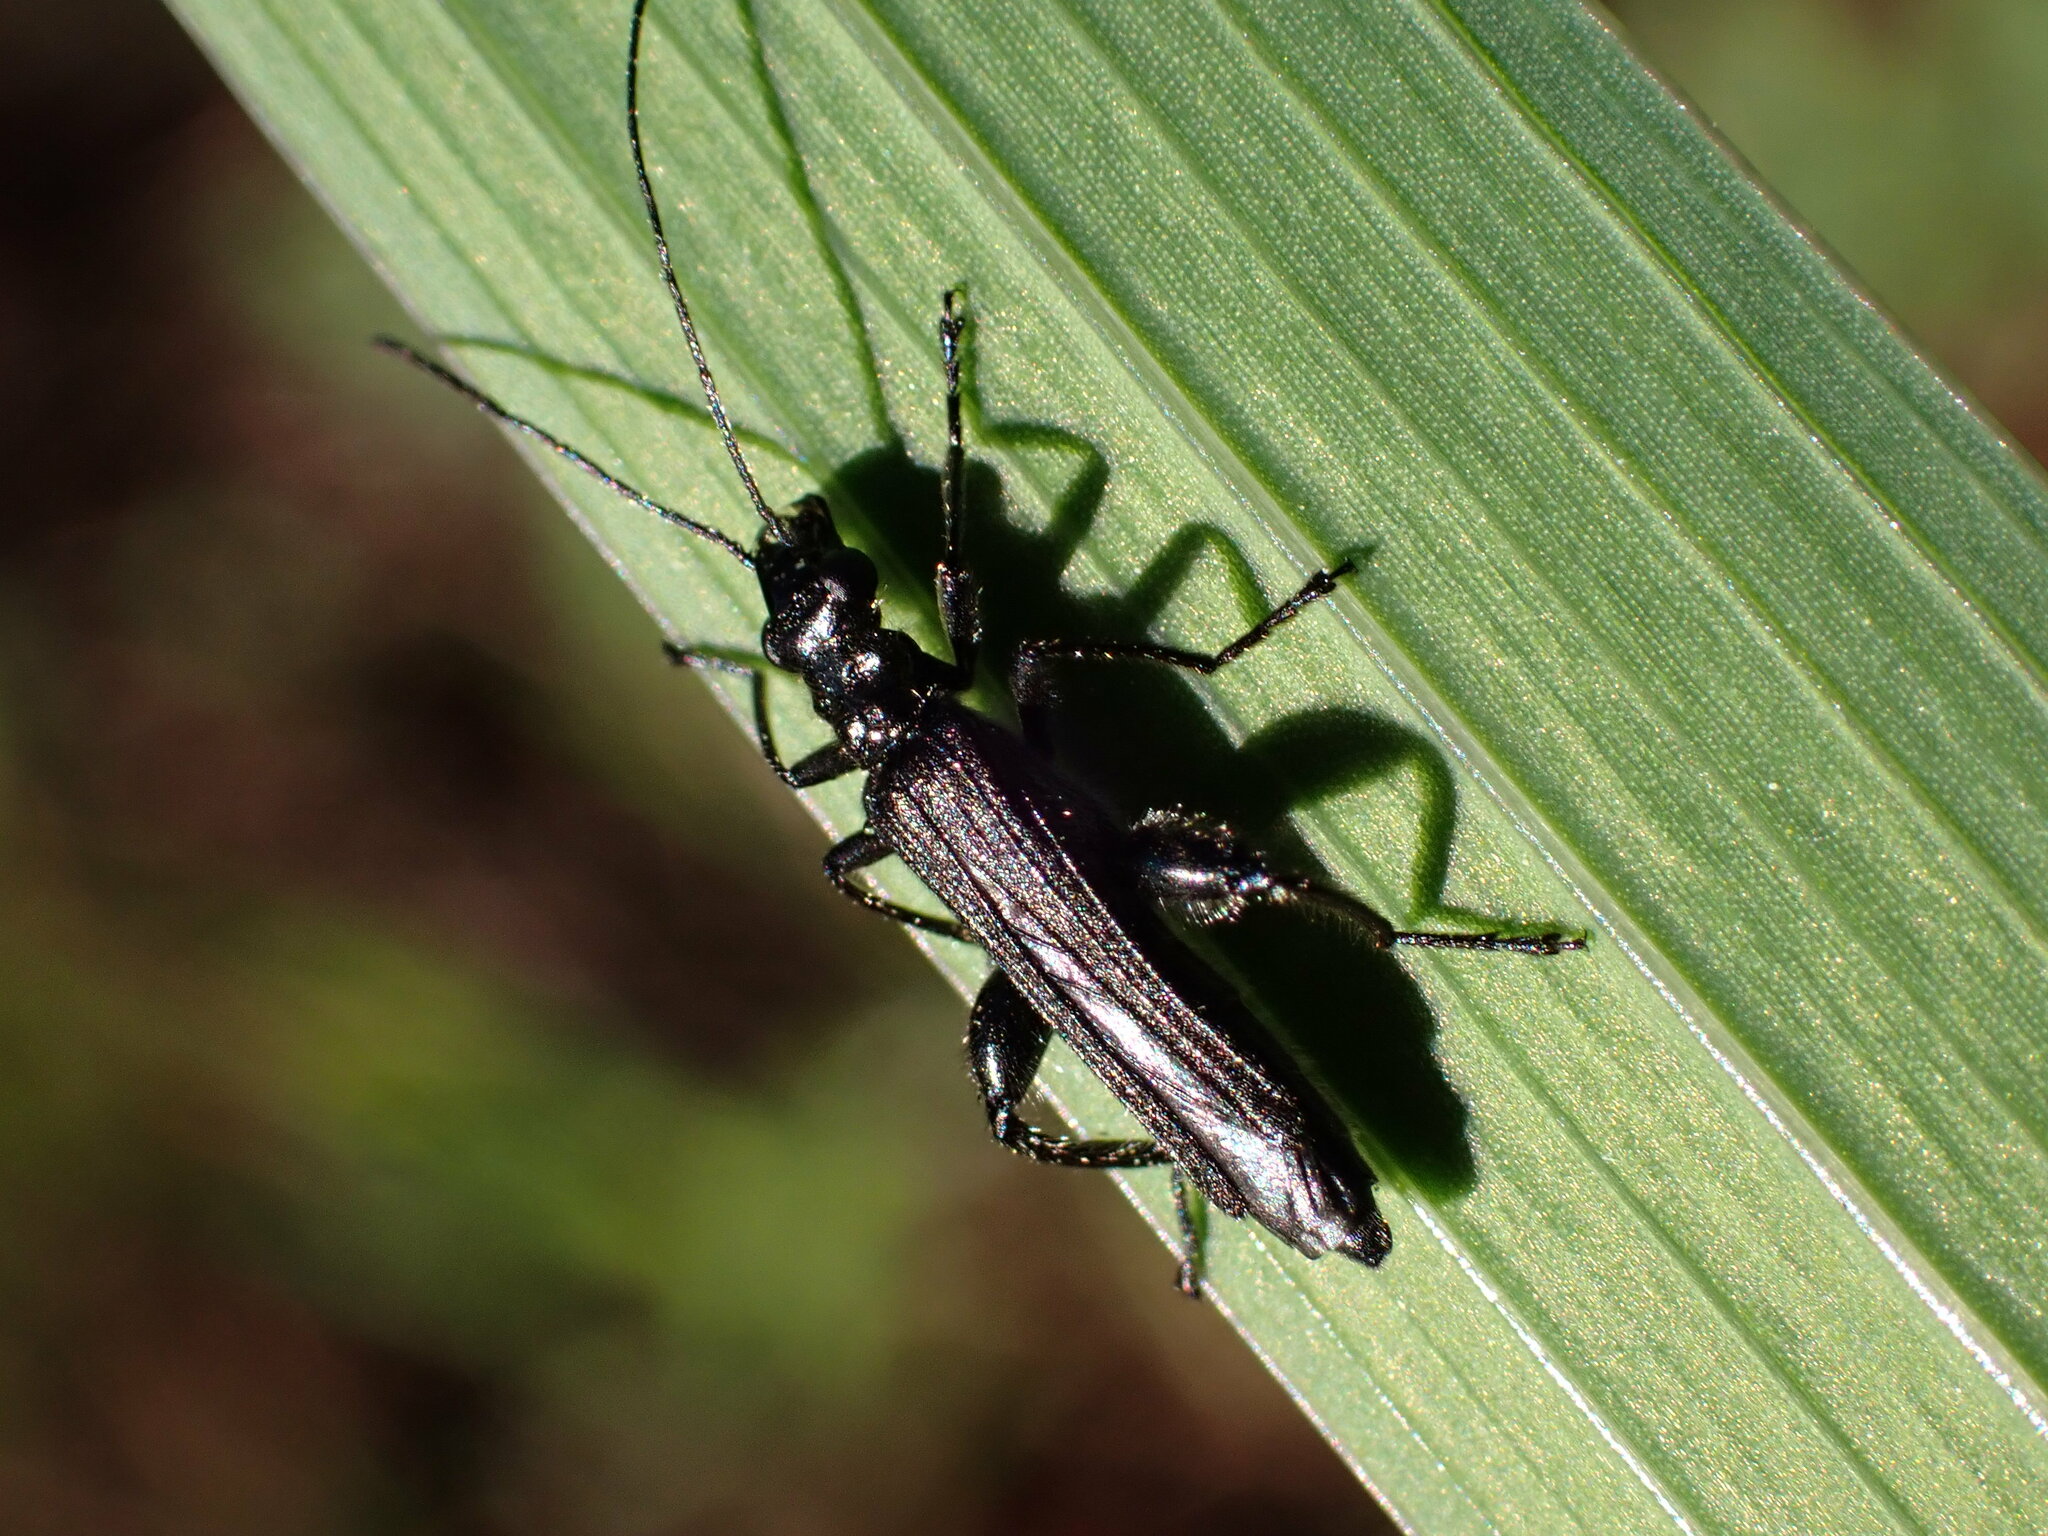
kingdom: Animalia
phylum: Arthropoda
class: Insecta
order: Coleoptera
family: Oedemeridae
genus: Oedemera
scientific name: Oedemera atrata
